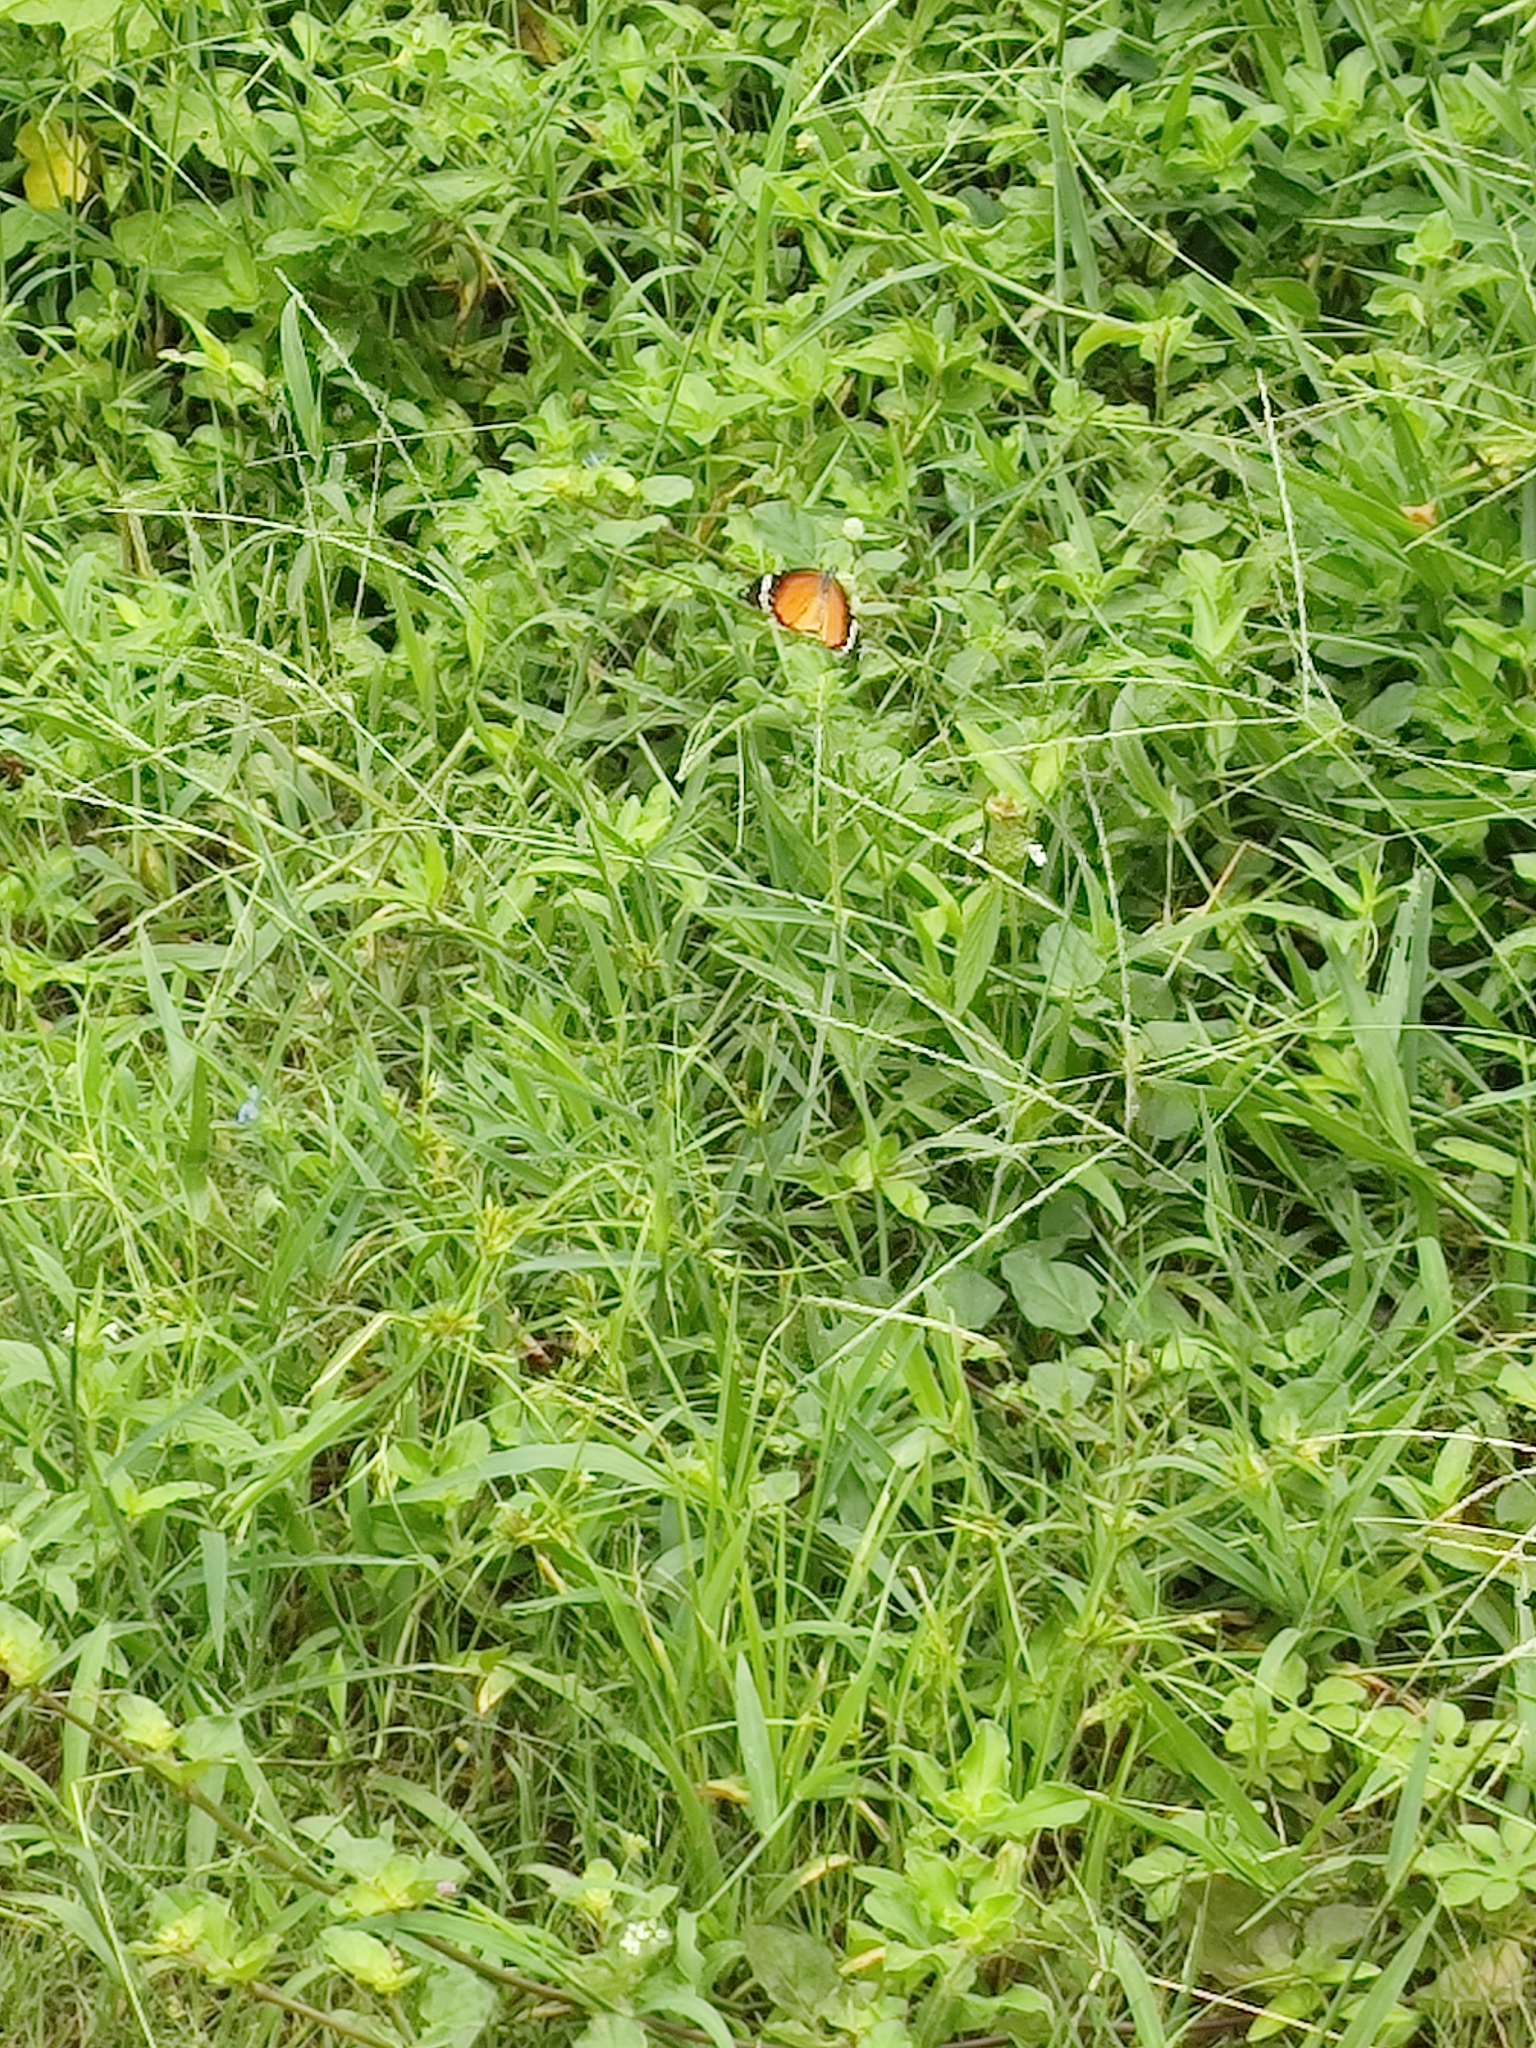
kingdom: Animalia
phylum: Arthropoda
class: Insecta
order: Lepidoptera
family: Nymphalidae
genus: Danaus
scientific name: Danaus chrysippus
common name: Plain tiger
